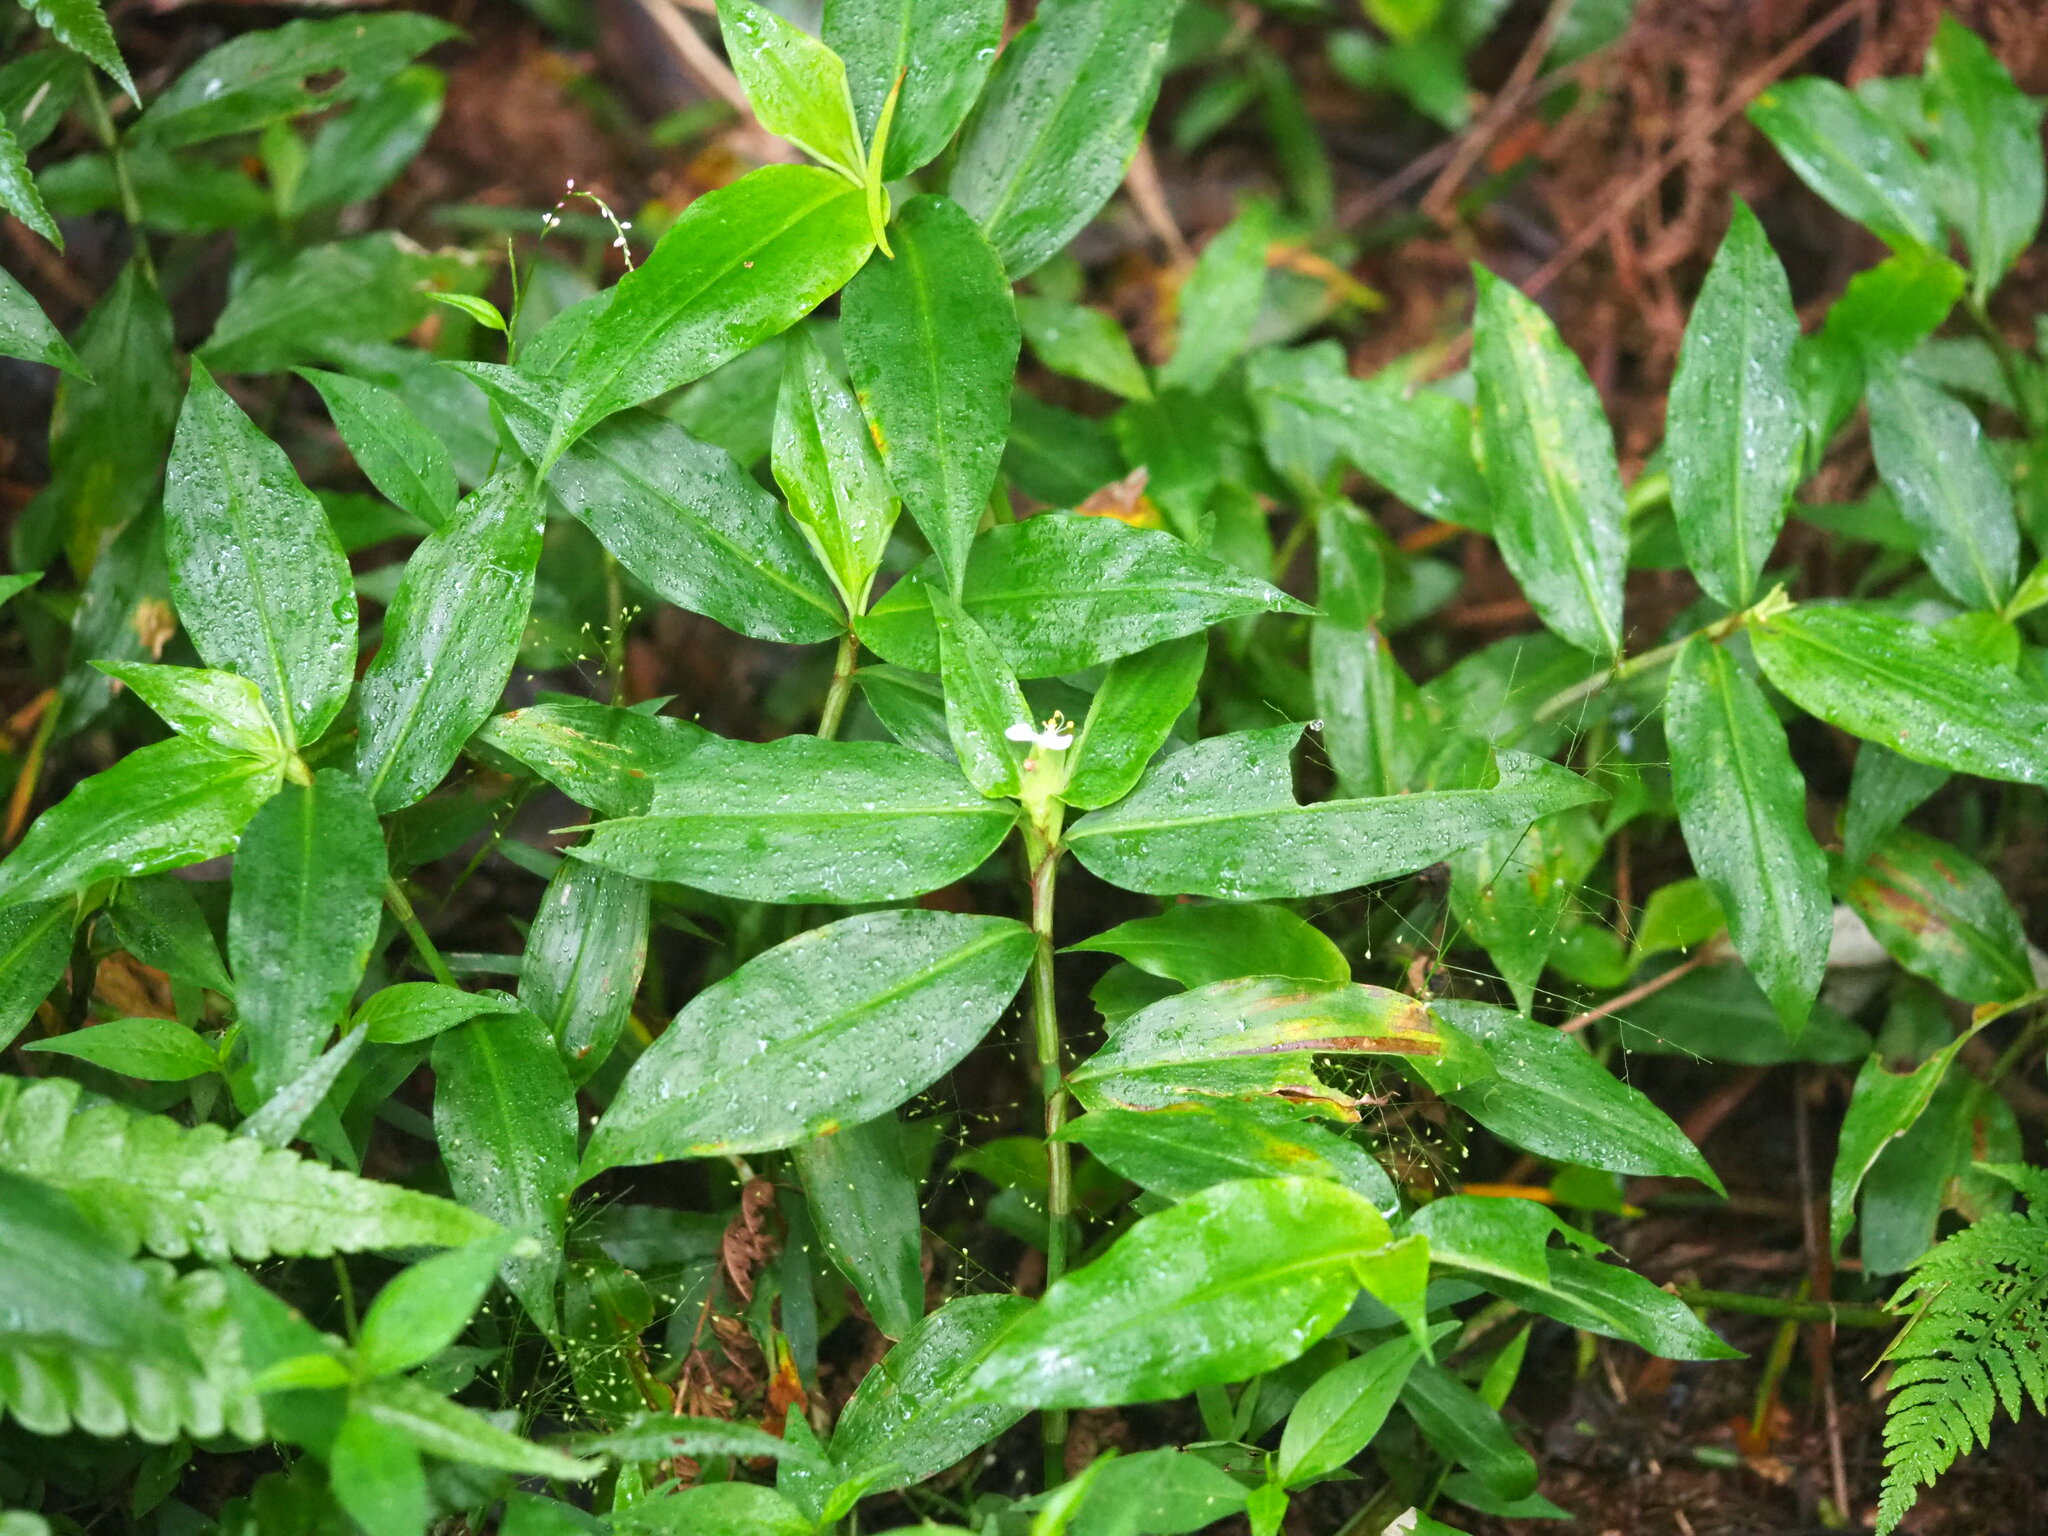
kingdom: Plantae
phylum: Tracheophyta
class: Liliopsida
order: Commelinales
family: Commelinaceae
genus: Commelina
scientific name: Commelina paludosa
